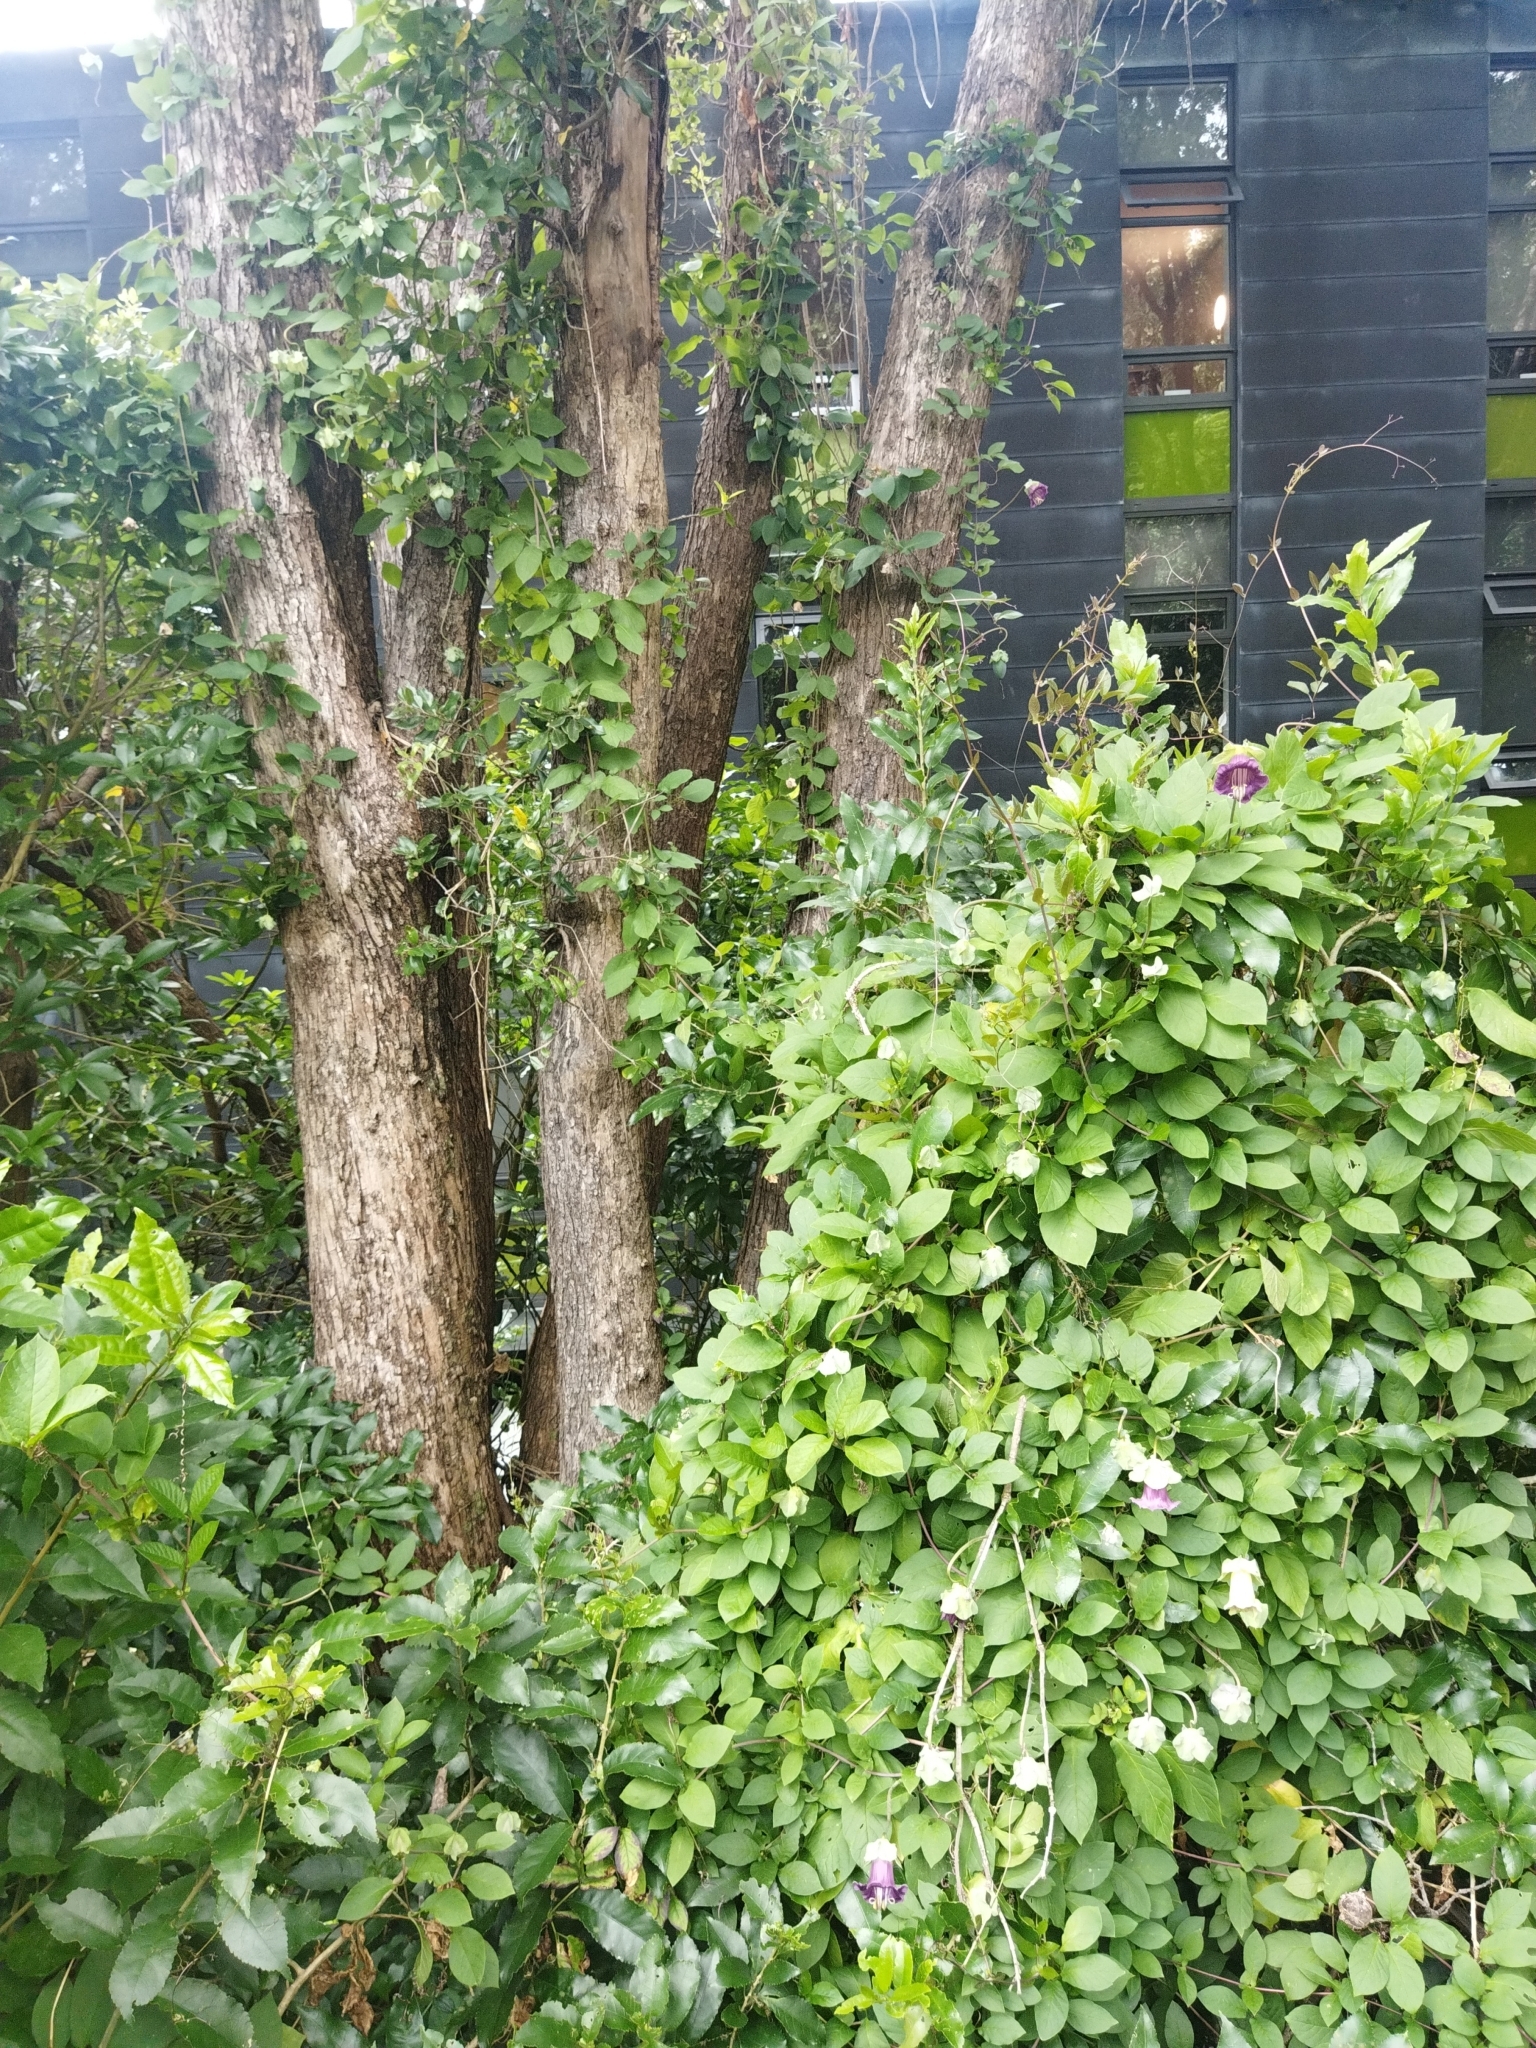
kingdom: Plantae
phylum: Tracheophyta
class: Magnoliopsida
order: Ericales
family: Polemoniaceae
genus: Cobaea
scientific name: Cobaea scandens
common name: Cup-and-saucer-vine
